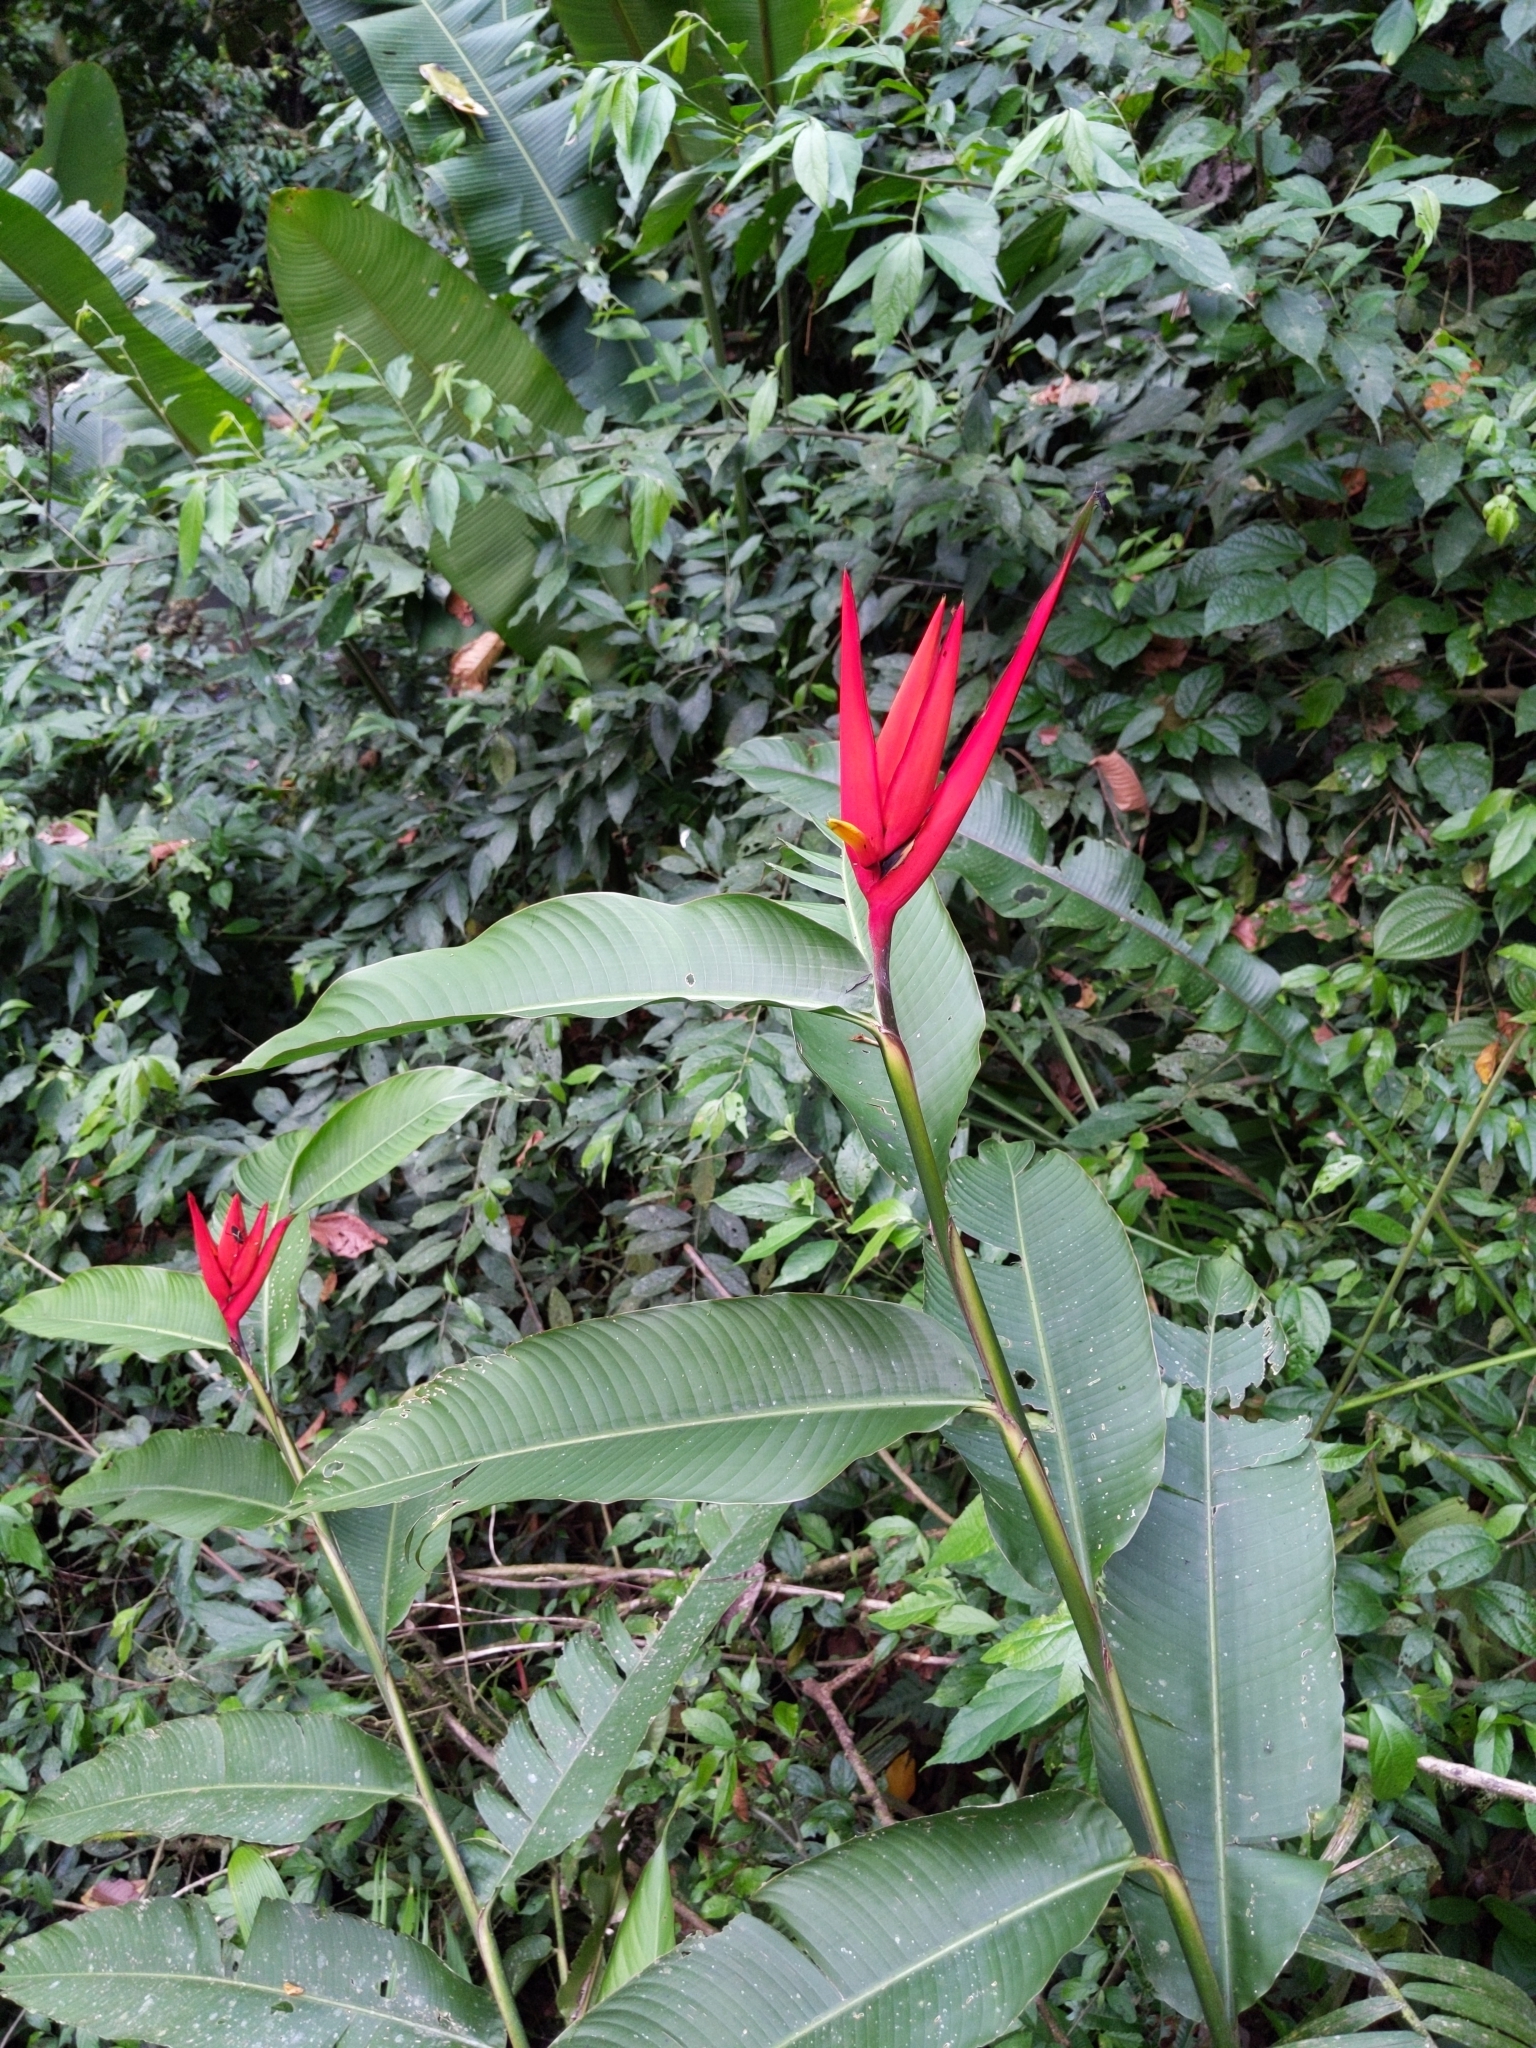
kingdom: Plantae
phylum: Tracheophyta
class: Liliopsida
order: Zingiberales
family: Heliconiaceae
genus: Heliconia
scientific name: Heliconia mathiasiae
